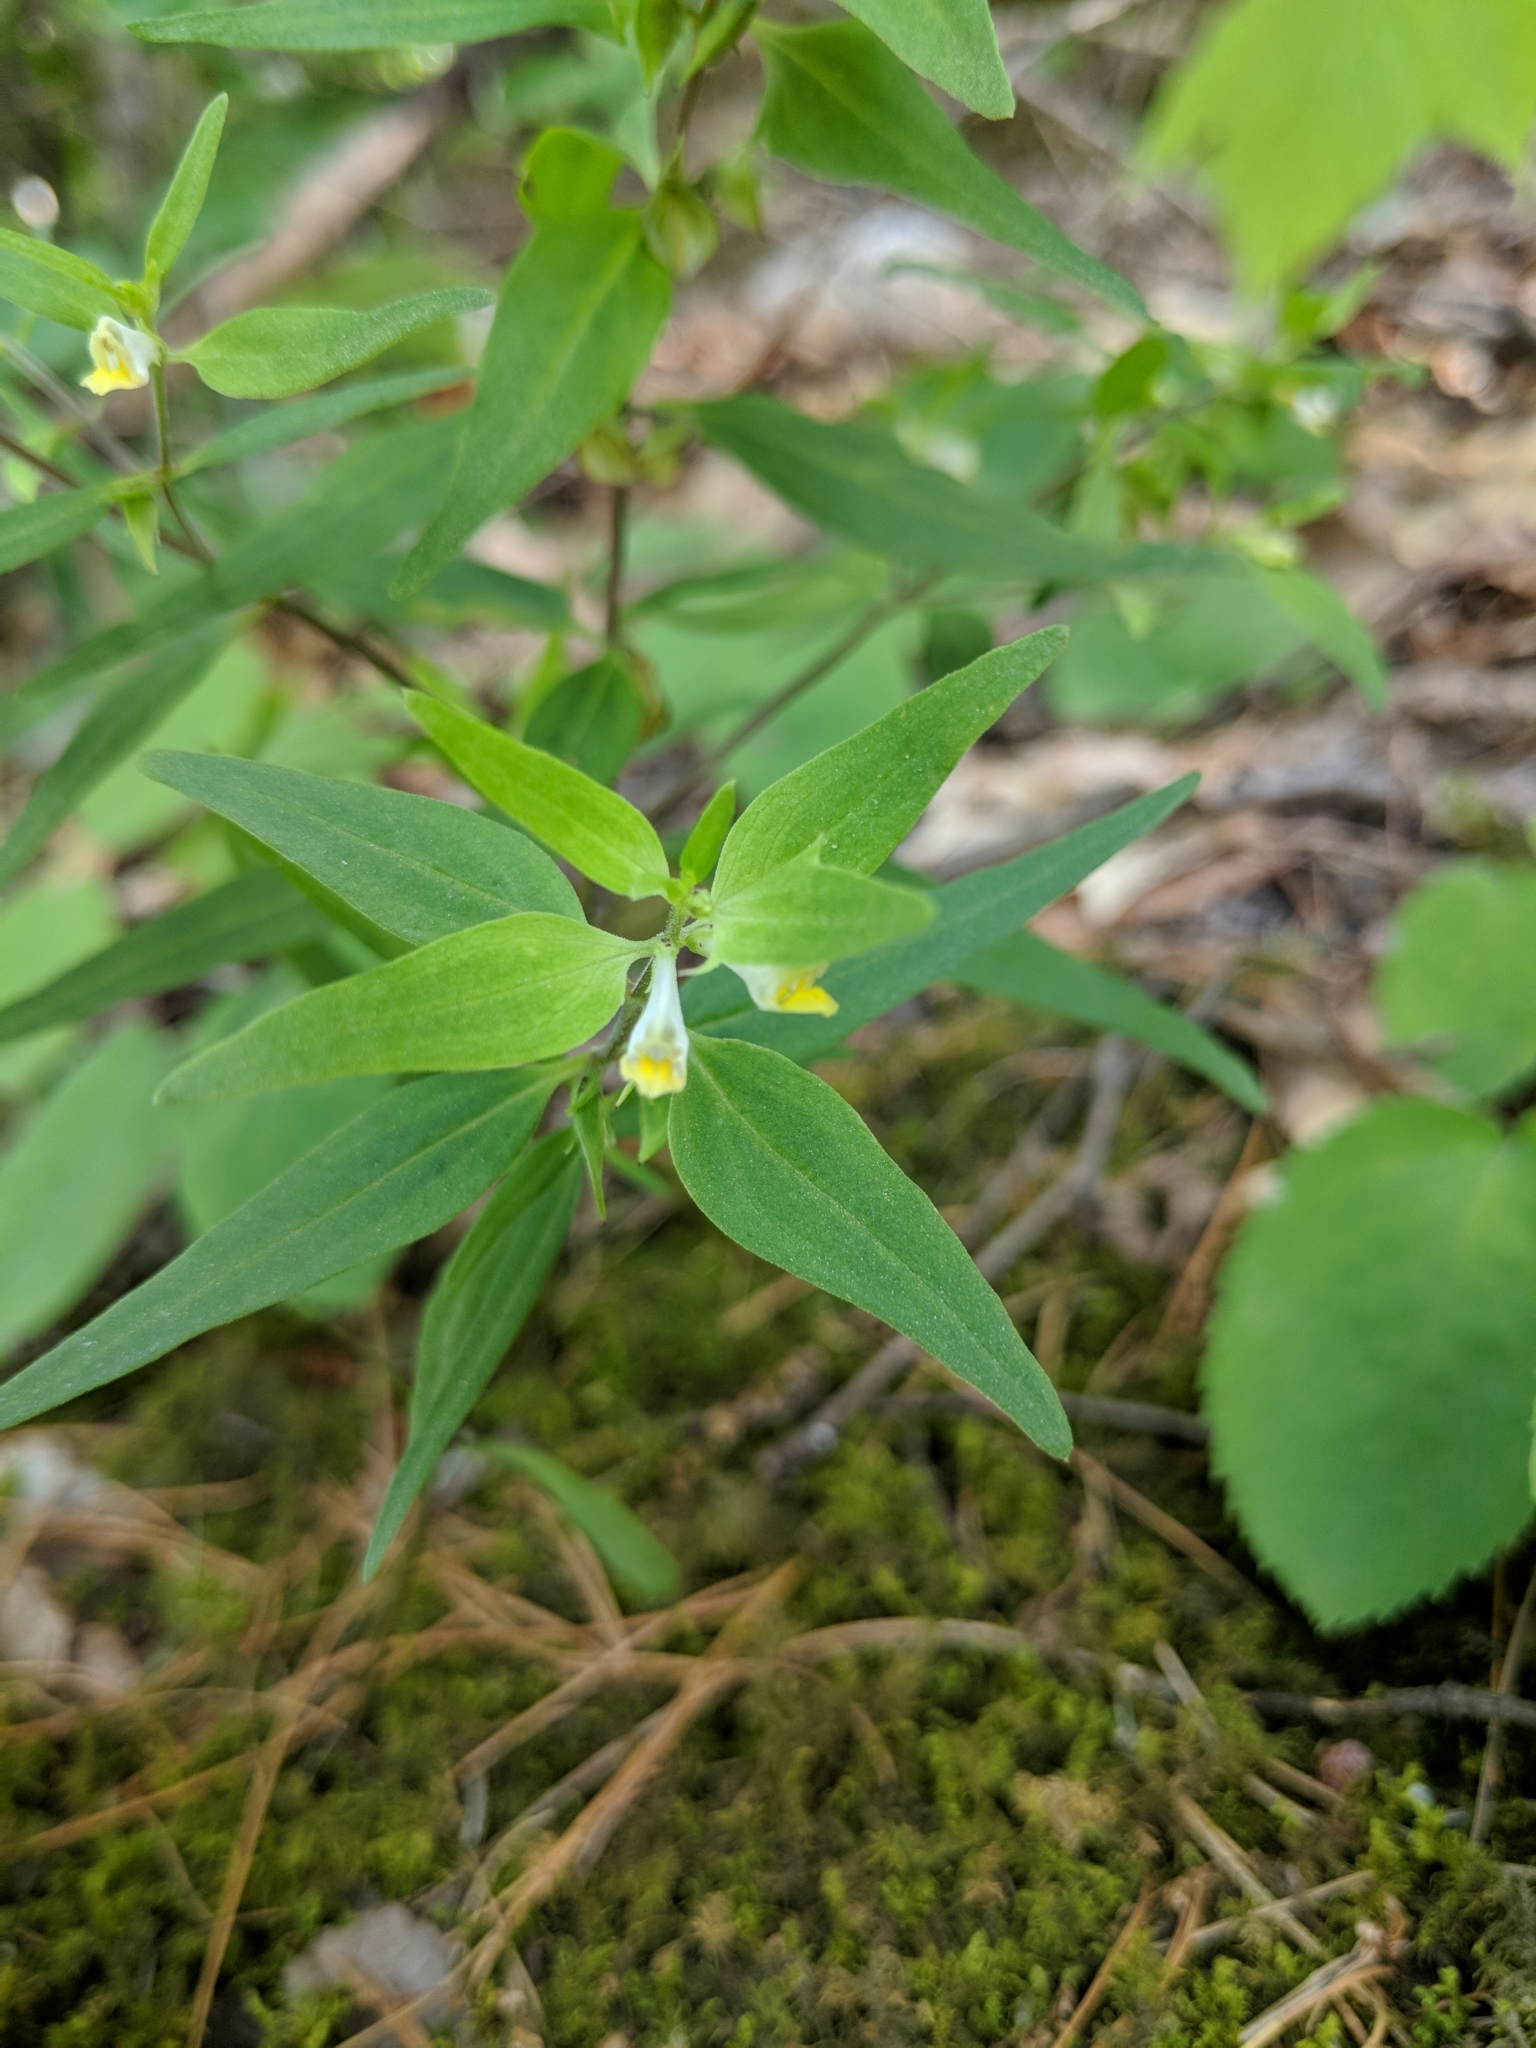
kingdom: Plantae
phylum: Tracheophyta
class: Magnoliopsida
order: Lamiales
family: Orobanchaceae
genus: Melampyrum
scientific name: Melampyrum lineare
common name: American cow-wheat
